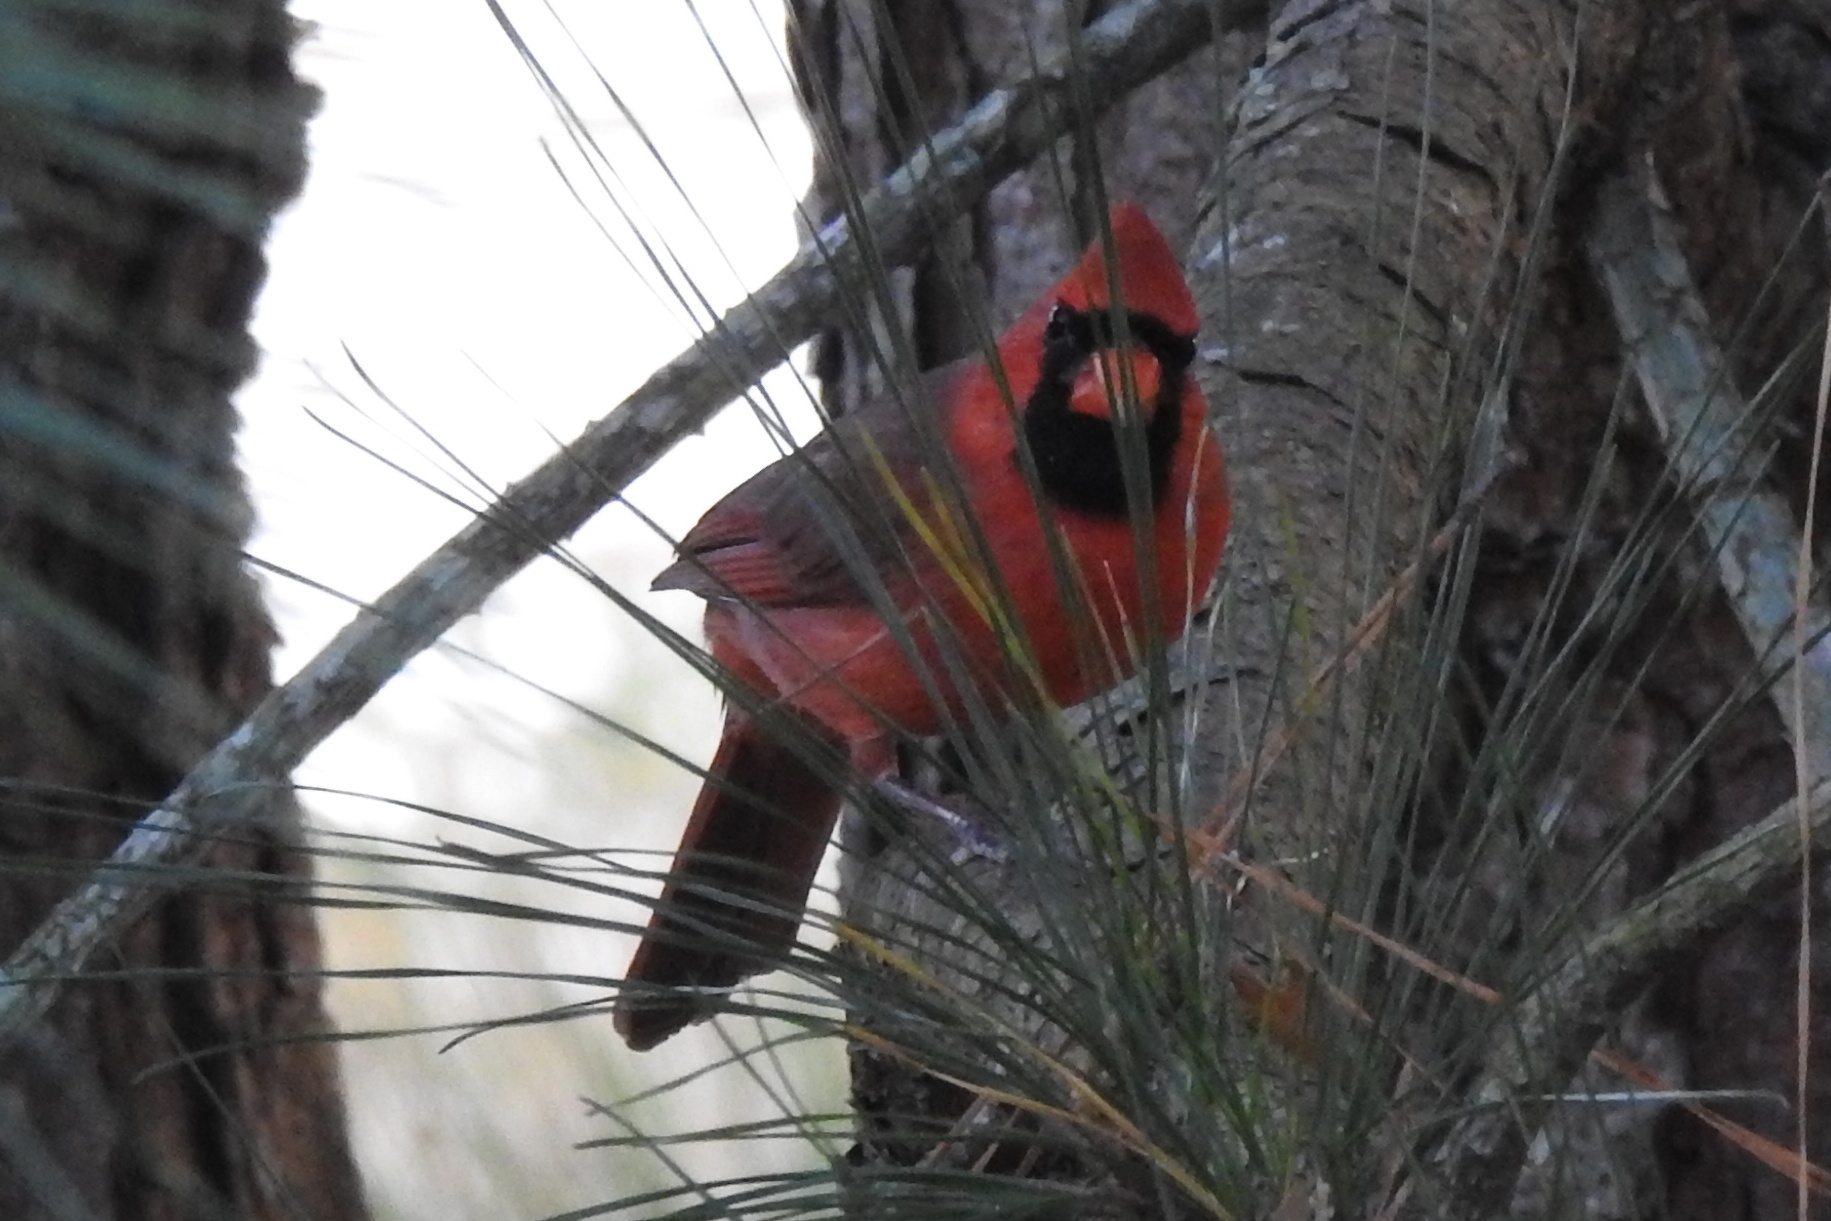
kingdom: Animalia
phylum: Chordata
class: Aves
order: Passeriformes
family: Cardinalidae
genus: Cardinalis
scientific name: Cardinalis cardinalis
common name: Northern cardinal
